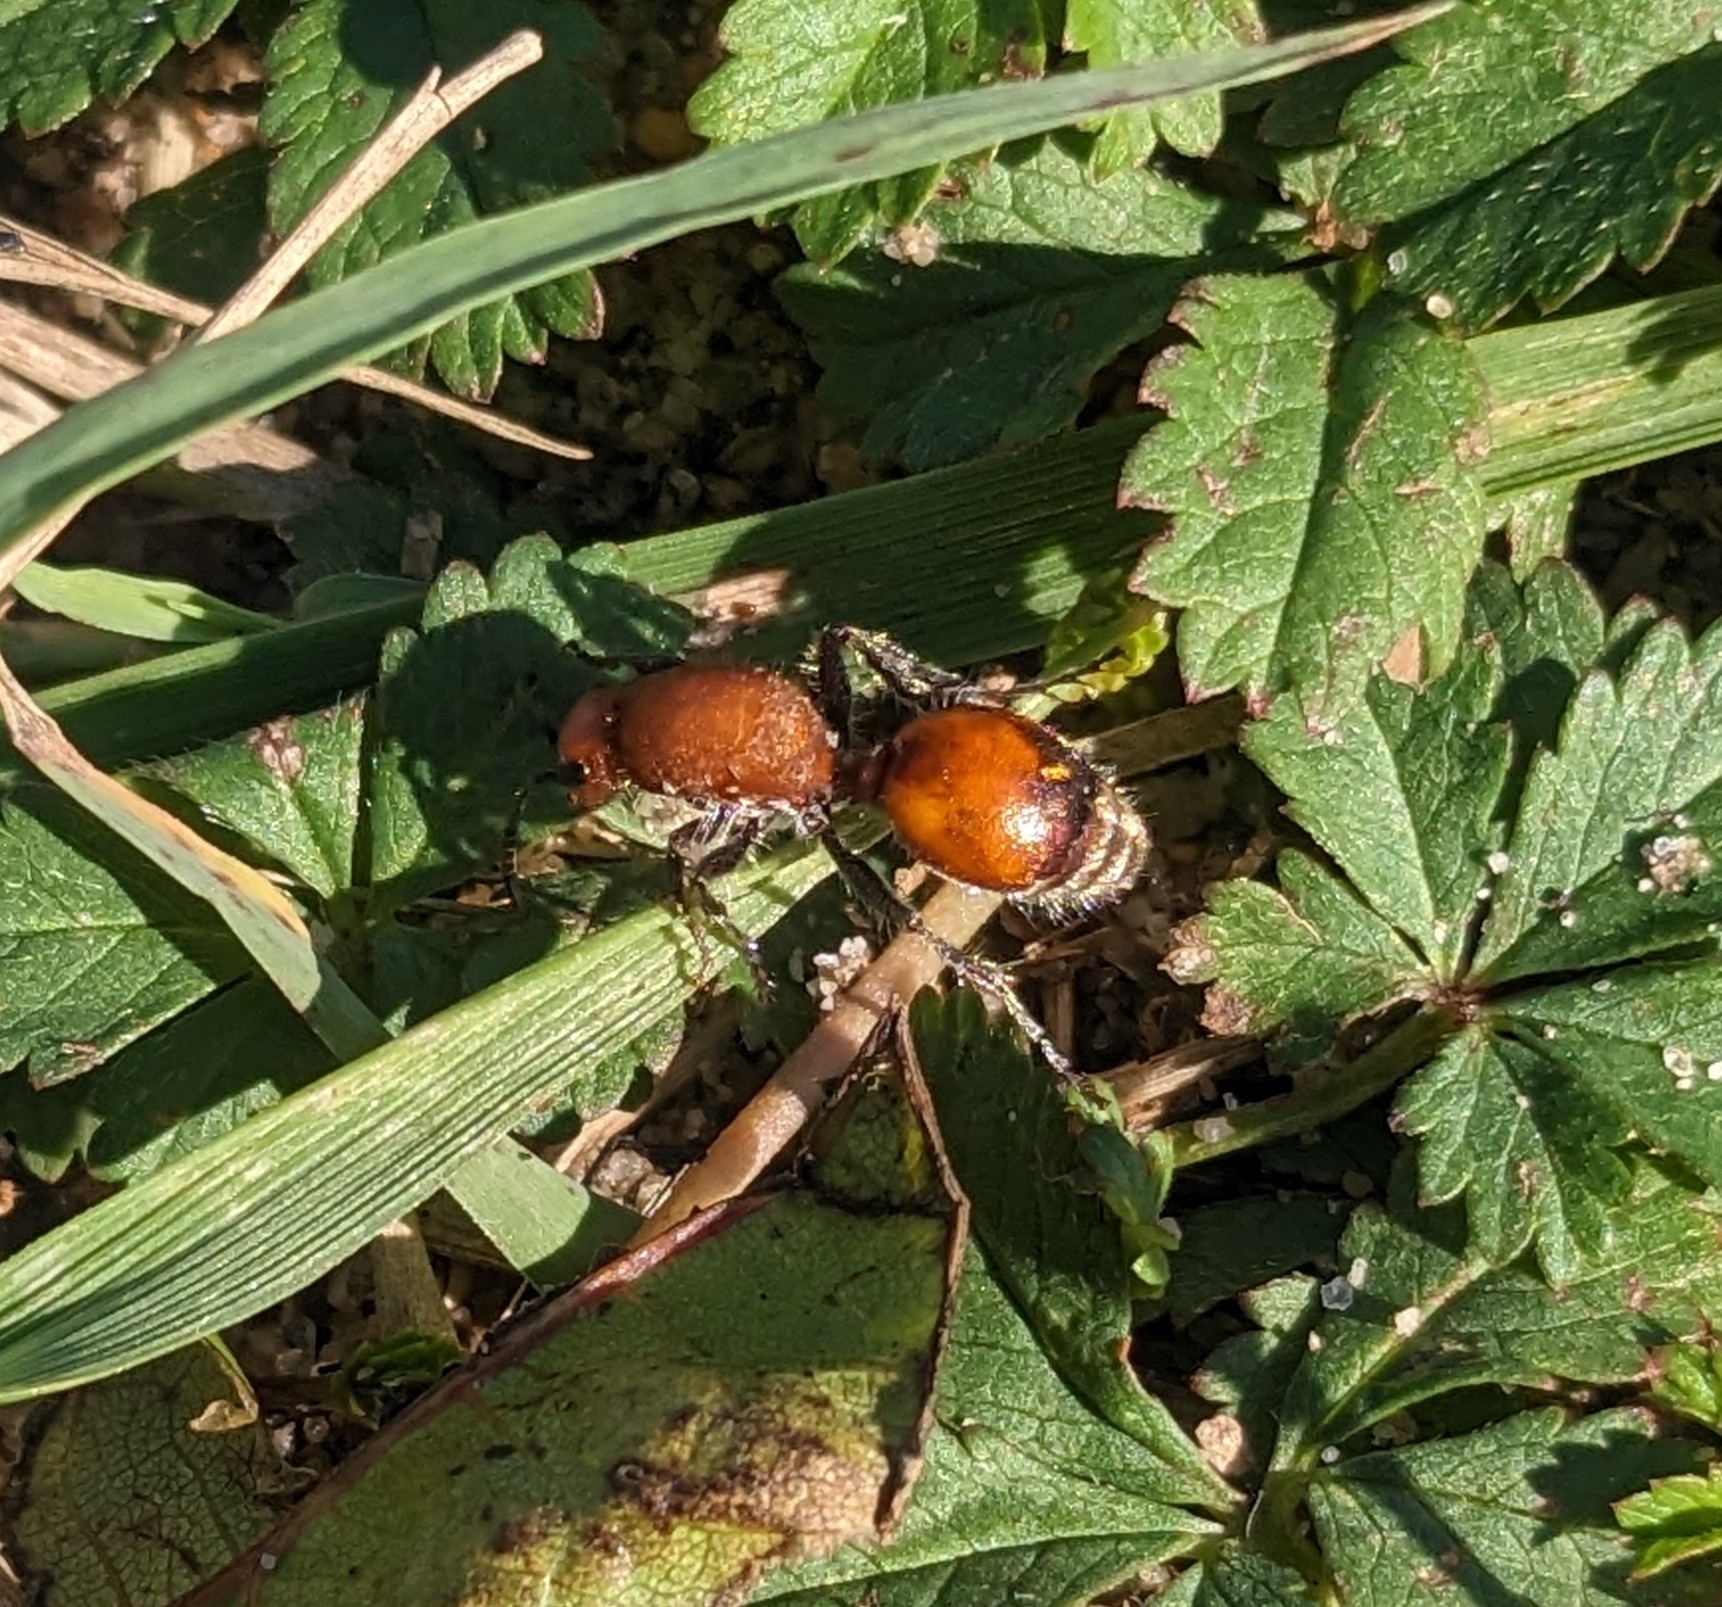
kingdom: Animalia
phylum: Arthropoda
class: Insecta
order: Hymenoptera
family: Mutillidae
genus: Dasymutilla
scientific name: Dasymutilla
